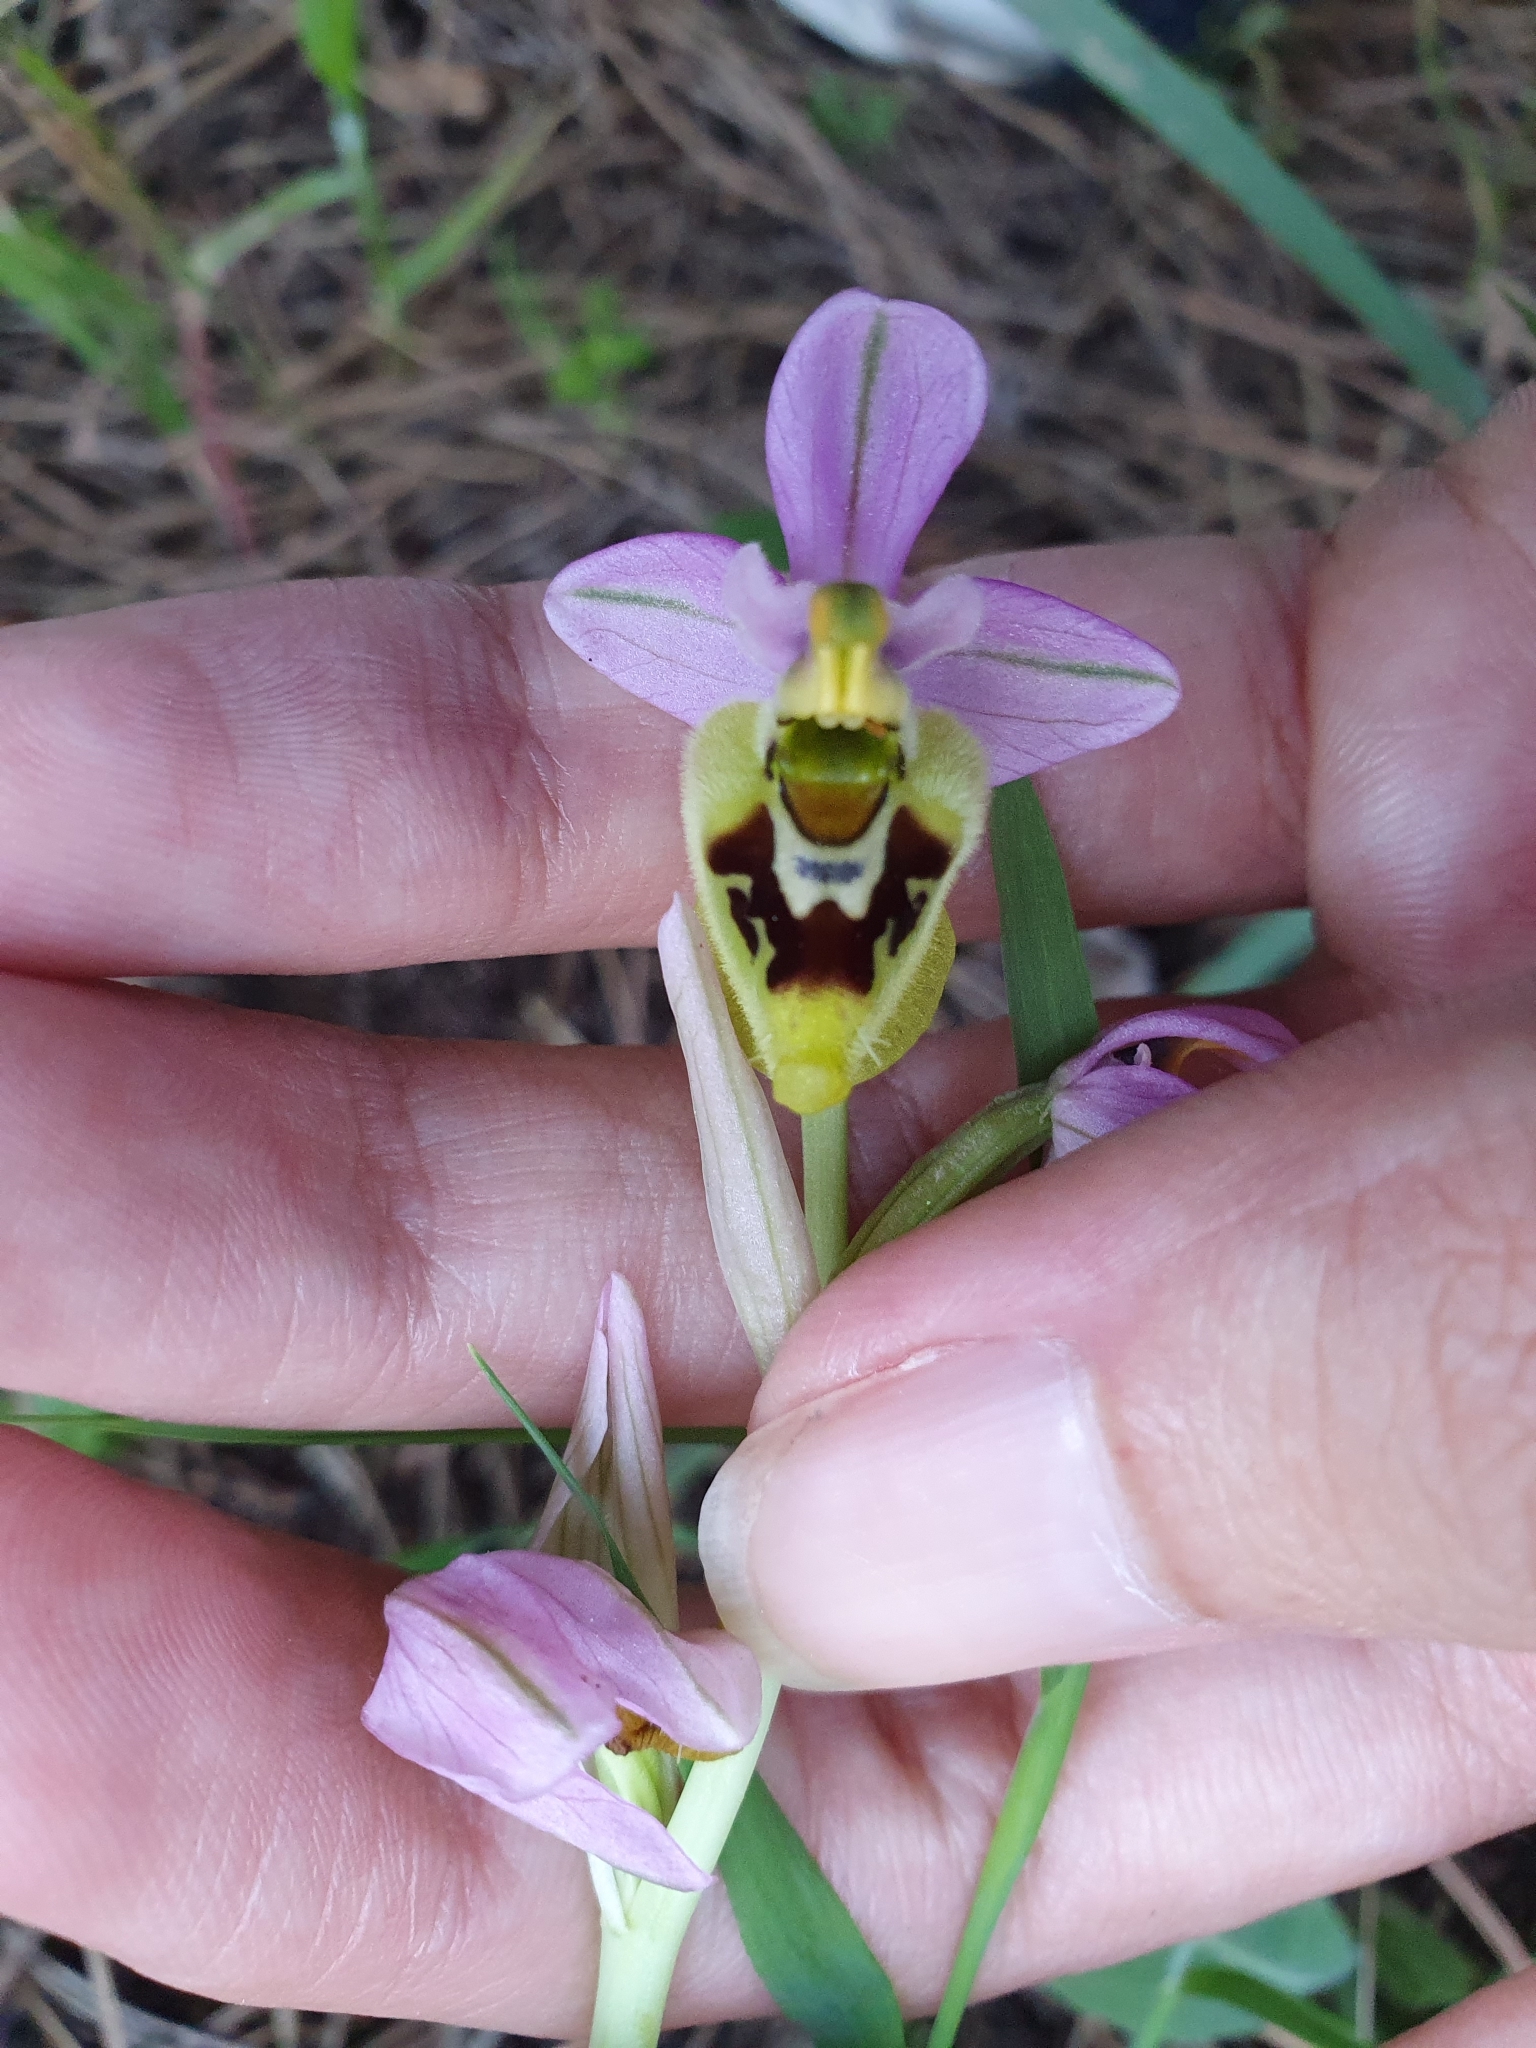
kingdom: Plantae
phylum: Tracheophyta
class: Liliopsida
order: Asparagales
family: Orchidaceae
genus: Ophrys
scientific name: Ophrys tenthredinifera
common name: Sawfly orchid
